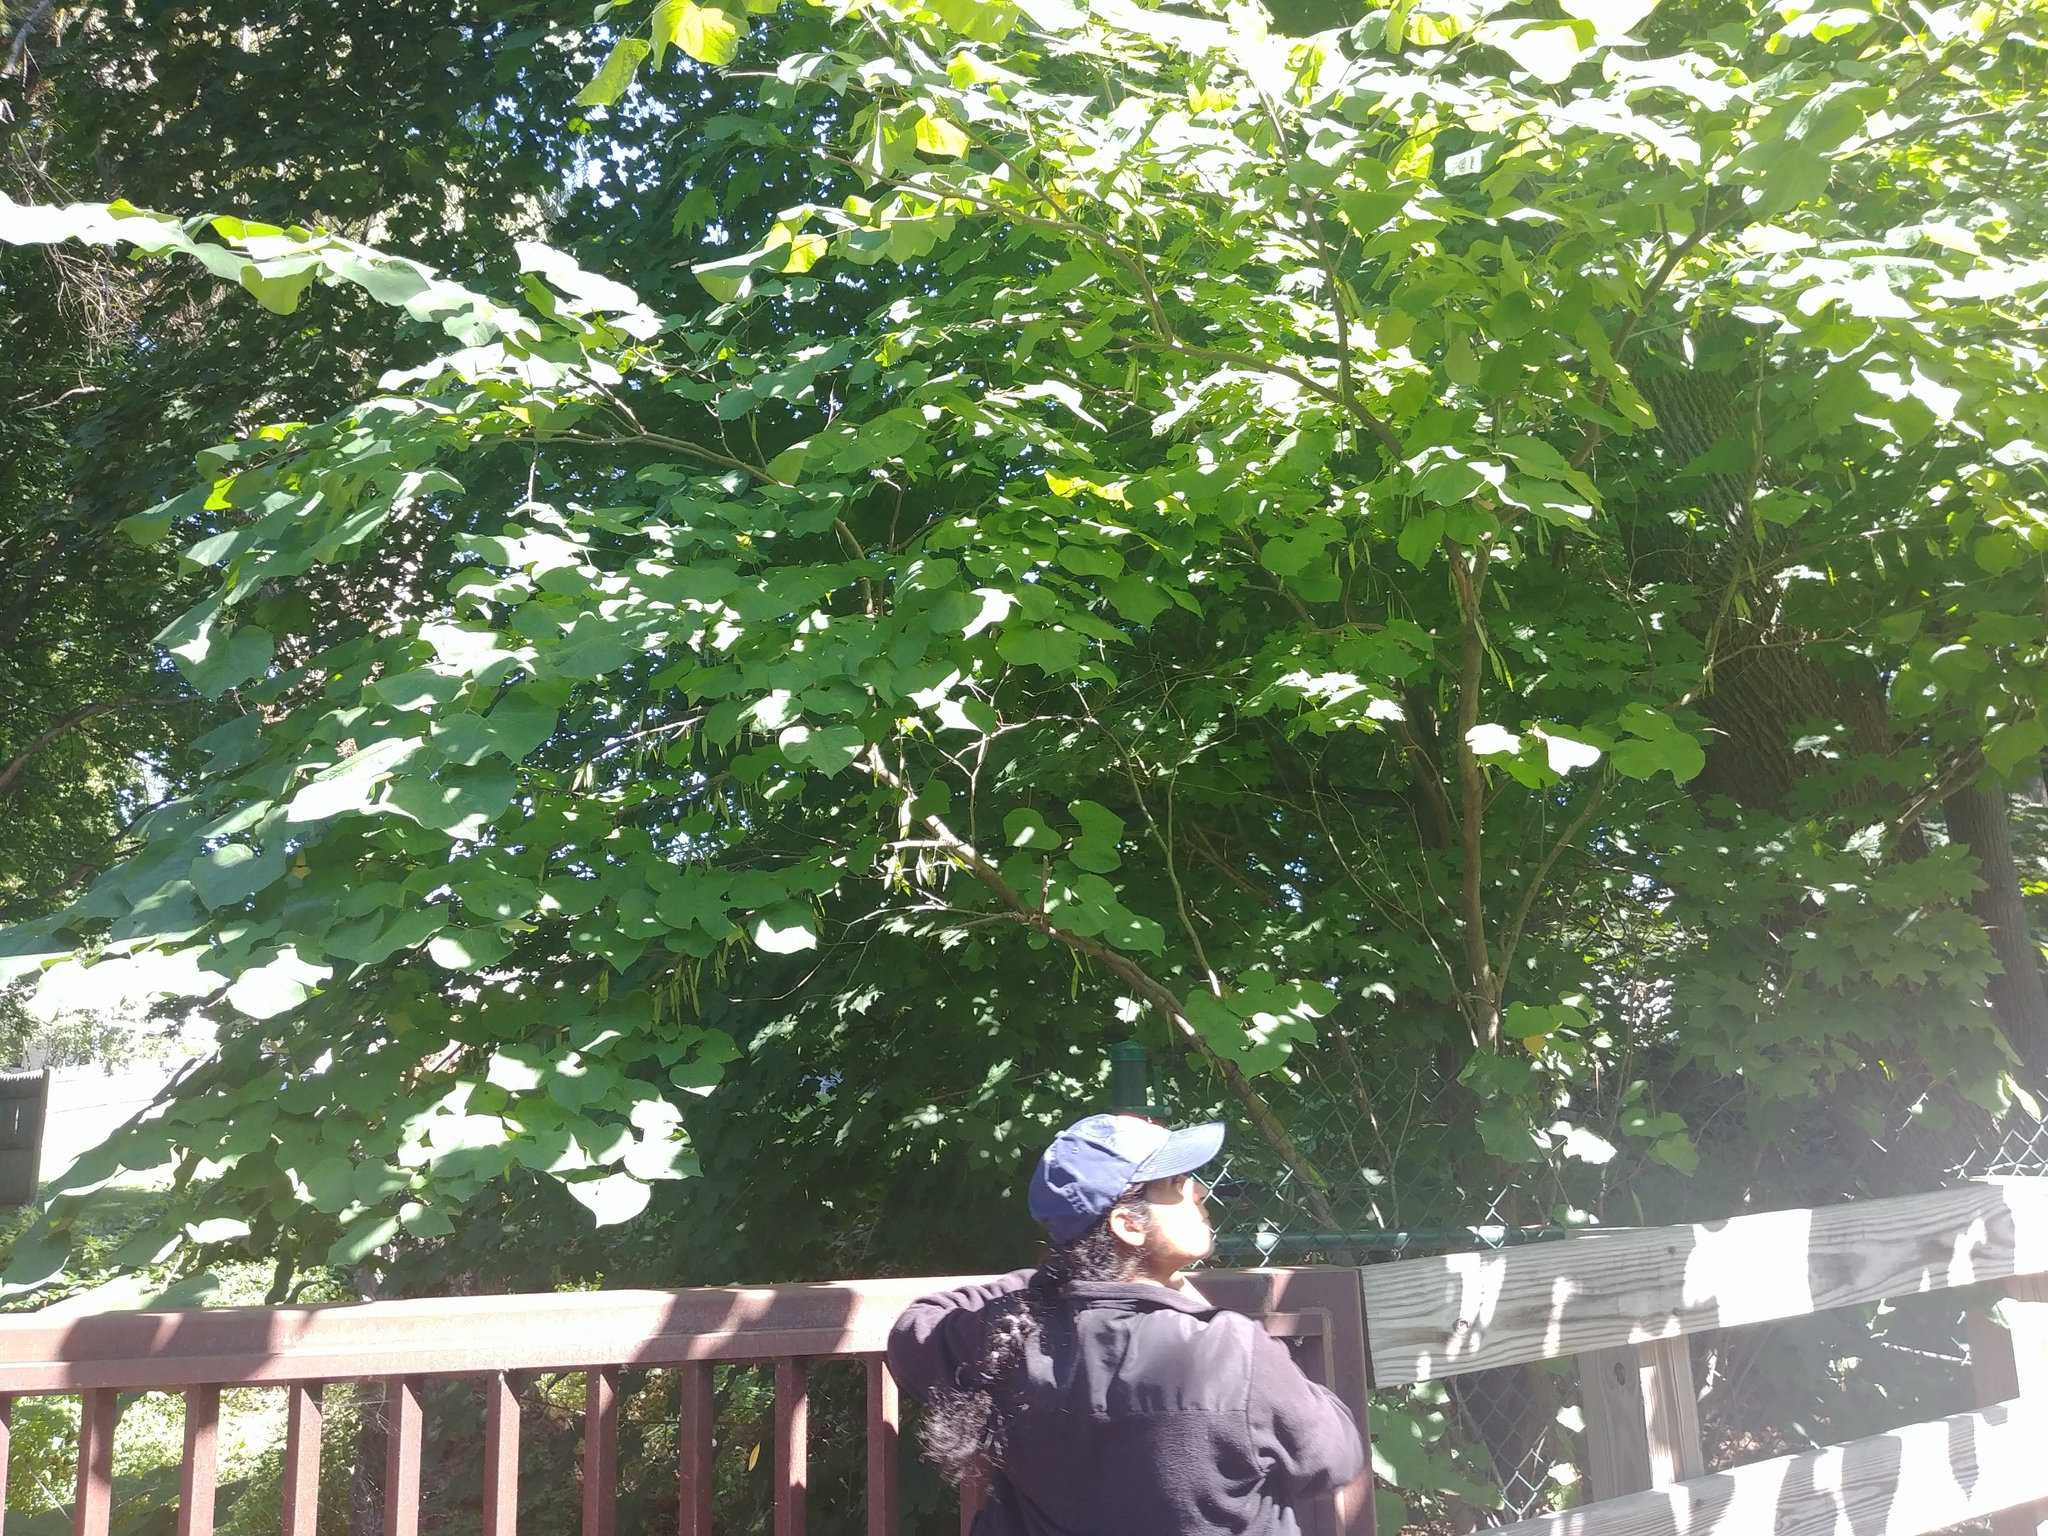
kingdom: Plantae
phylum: Tracheophyta
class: Magnoliopsida
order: Fabales
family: Fabaceae
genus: Cercis
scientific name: Cercis canadensis
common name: Eastern redbud
